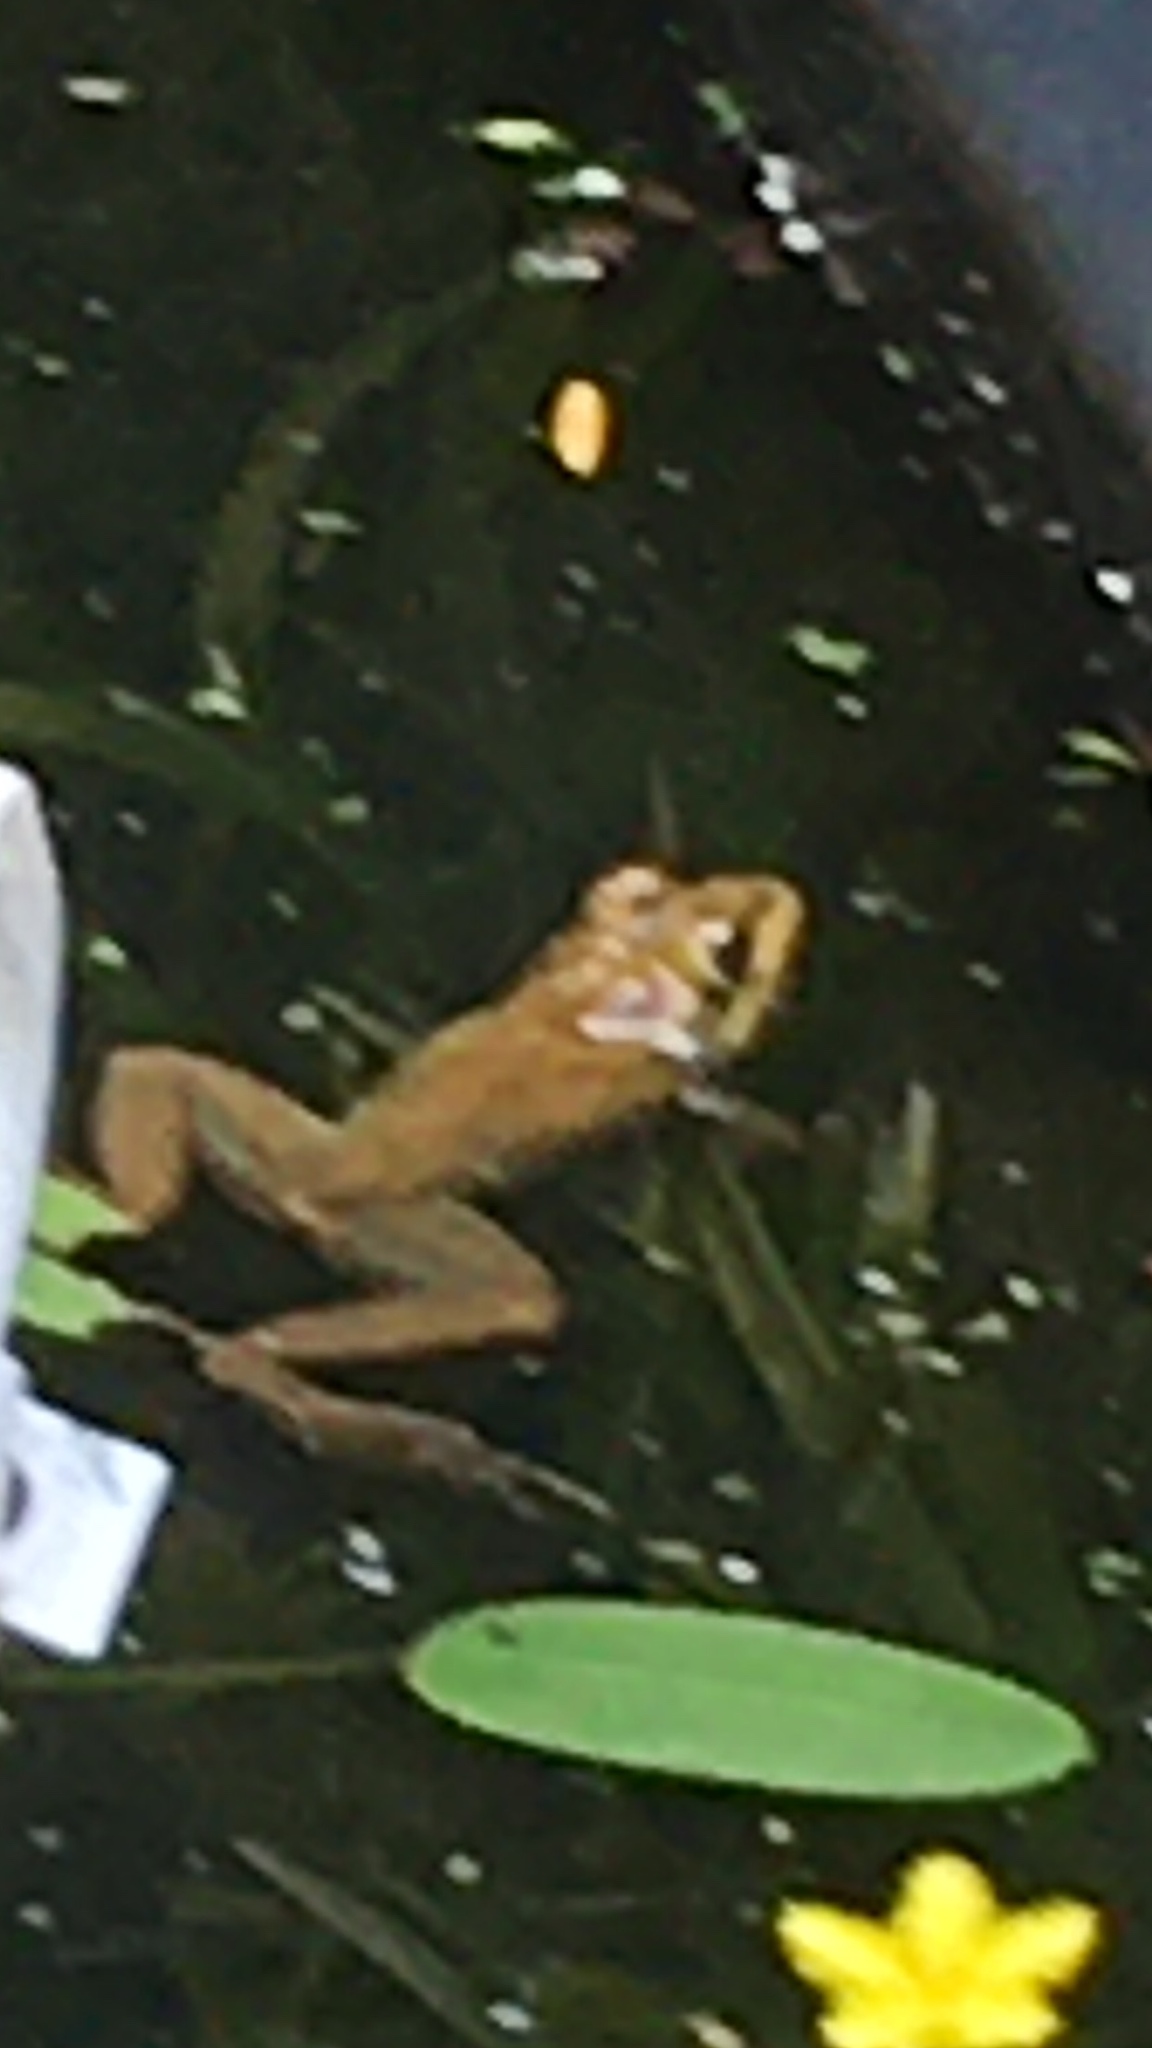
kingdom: Animalia
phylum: Chordata
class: Amphibia
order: Anura
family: Pyxicephalidae
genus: Amietia
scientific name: Amietia fuscigula
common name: Cape rana
